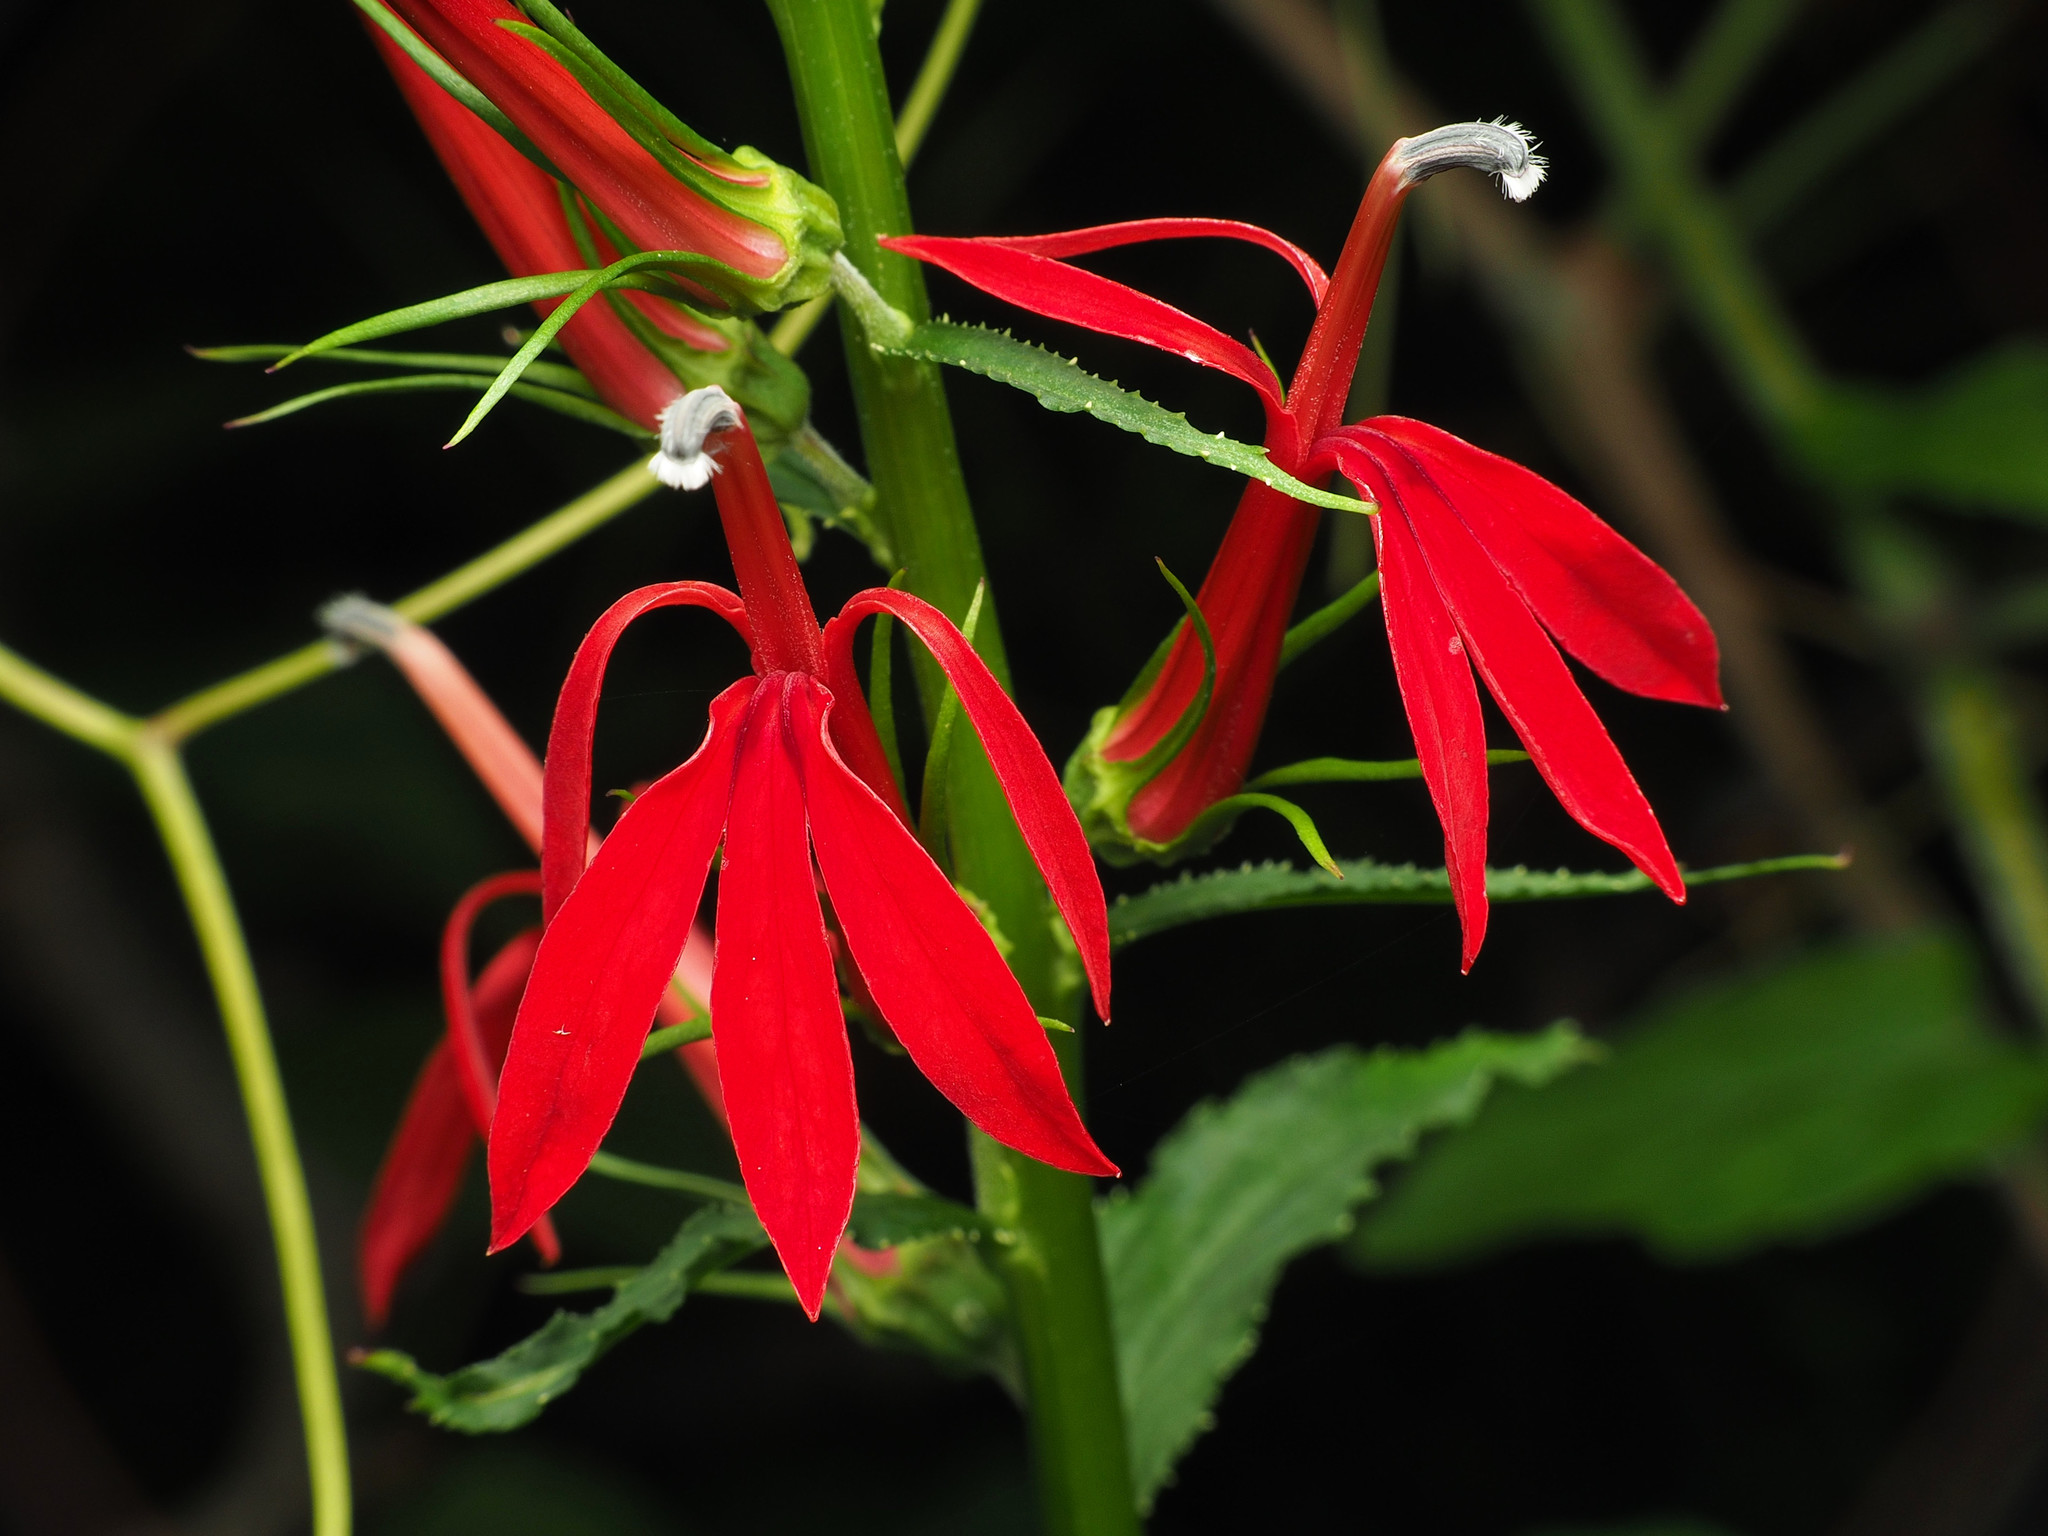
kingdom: Plantae
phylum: Tracheophyta
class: Magnoliopsida
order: Asterales
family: Campanulaceae
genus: Lobelia
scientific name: Lobelia cardinalis
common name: Cardinal flower
